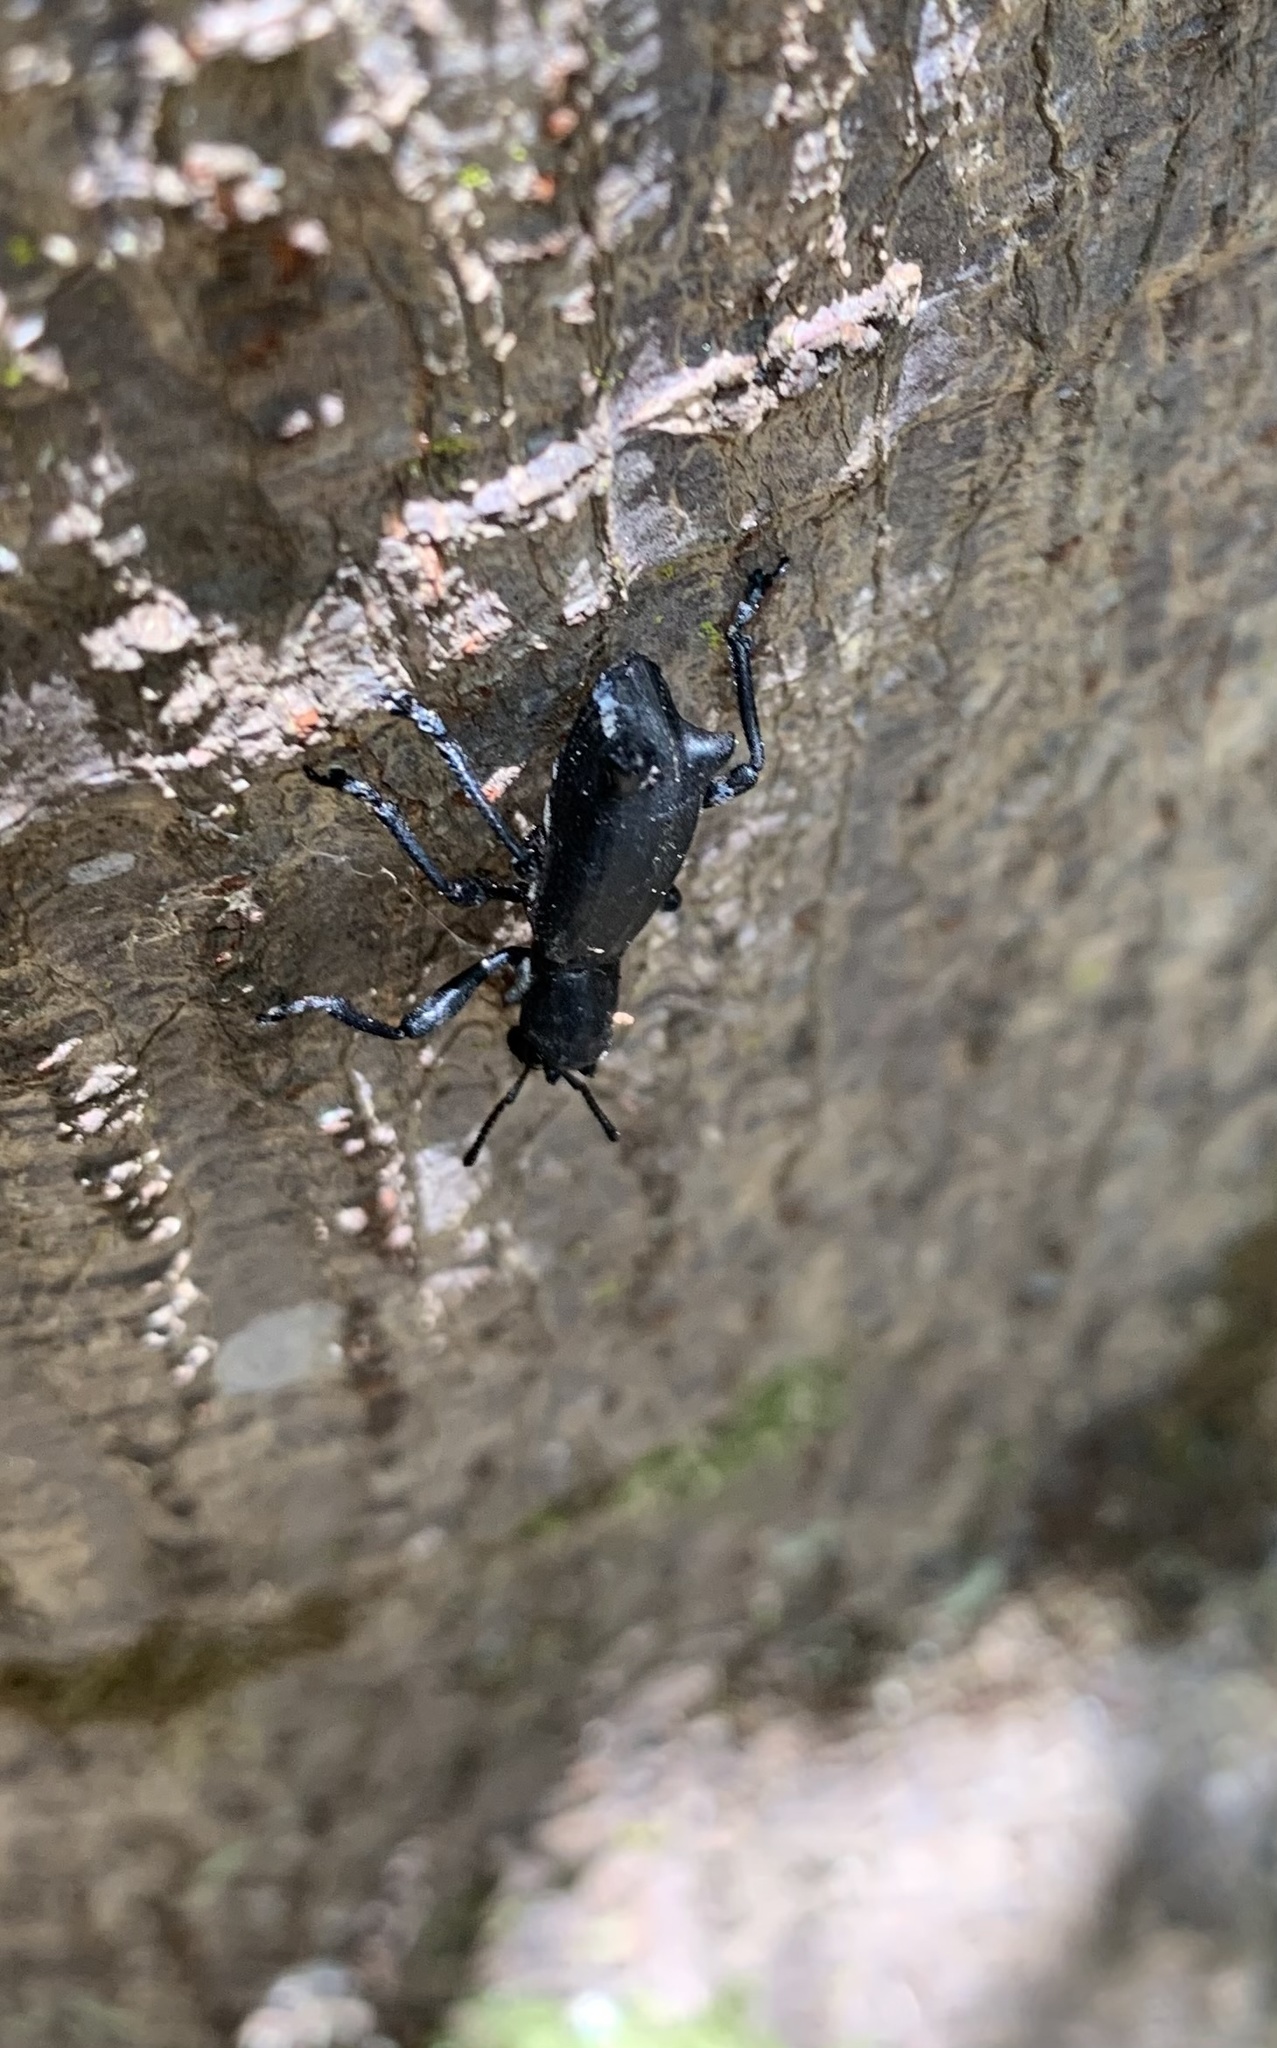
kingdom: Animalia
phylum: Arthropoda
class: Insecta
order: Coleoptera
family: Curculionidae
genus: Aegorhinus
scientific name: Aegorhinus
